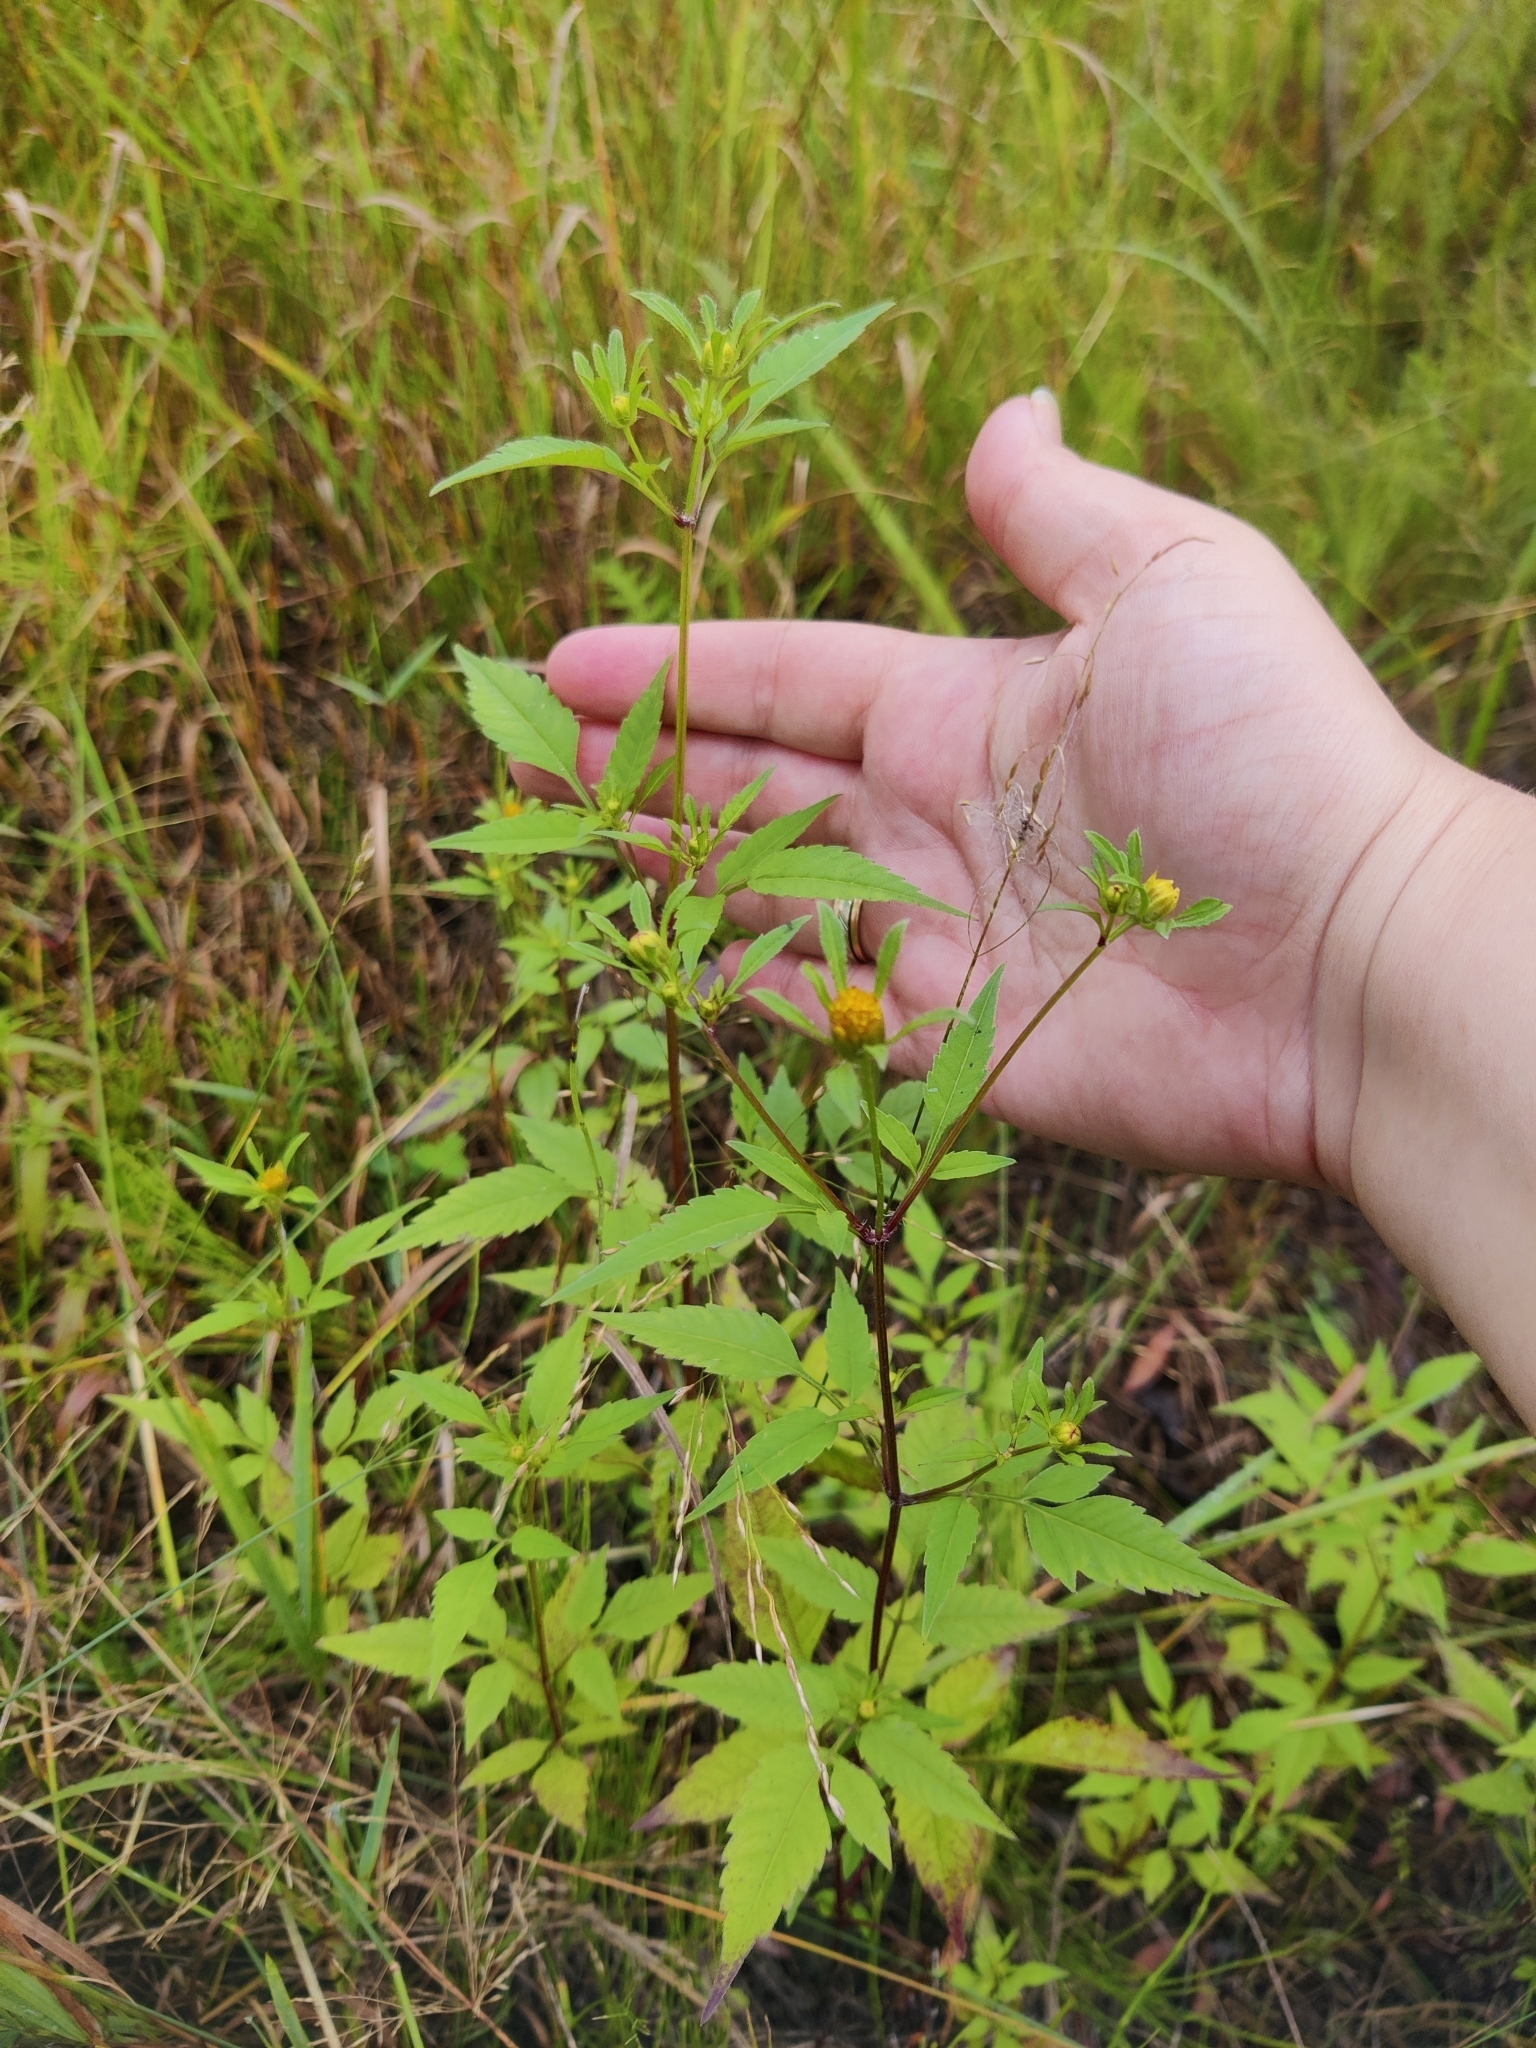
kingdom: Plantae
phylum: Tracheophyta
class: Magnoliopsida
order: Asterales
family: Asteraceae
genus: Bidens
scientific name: Bidens frondosa
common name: Beggarticks
